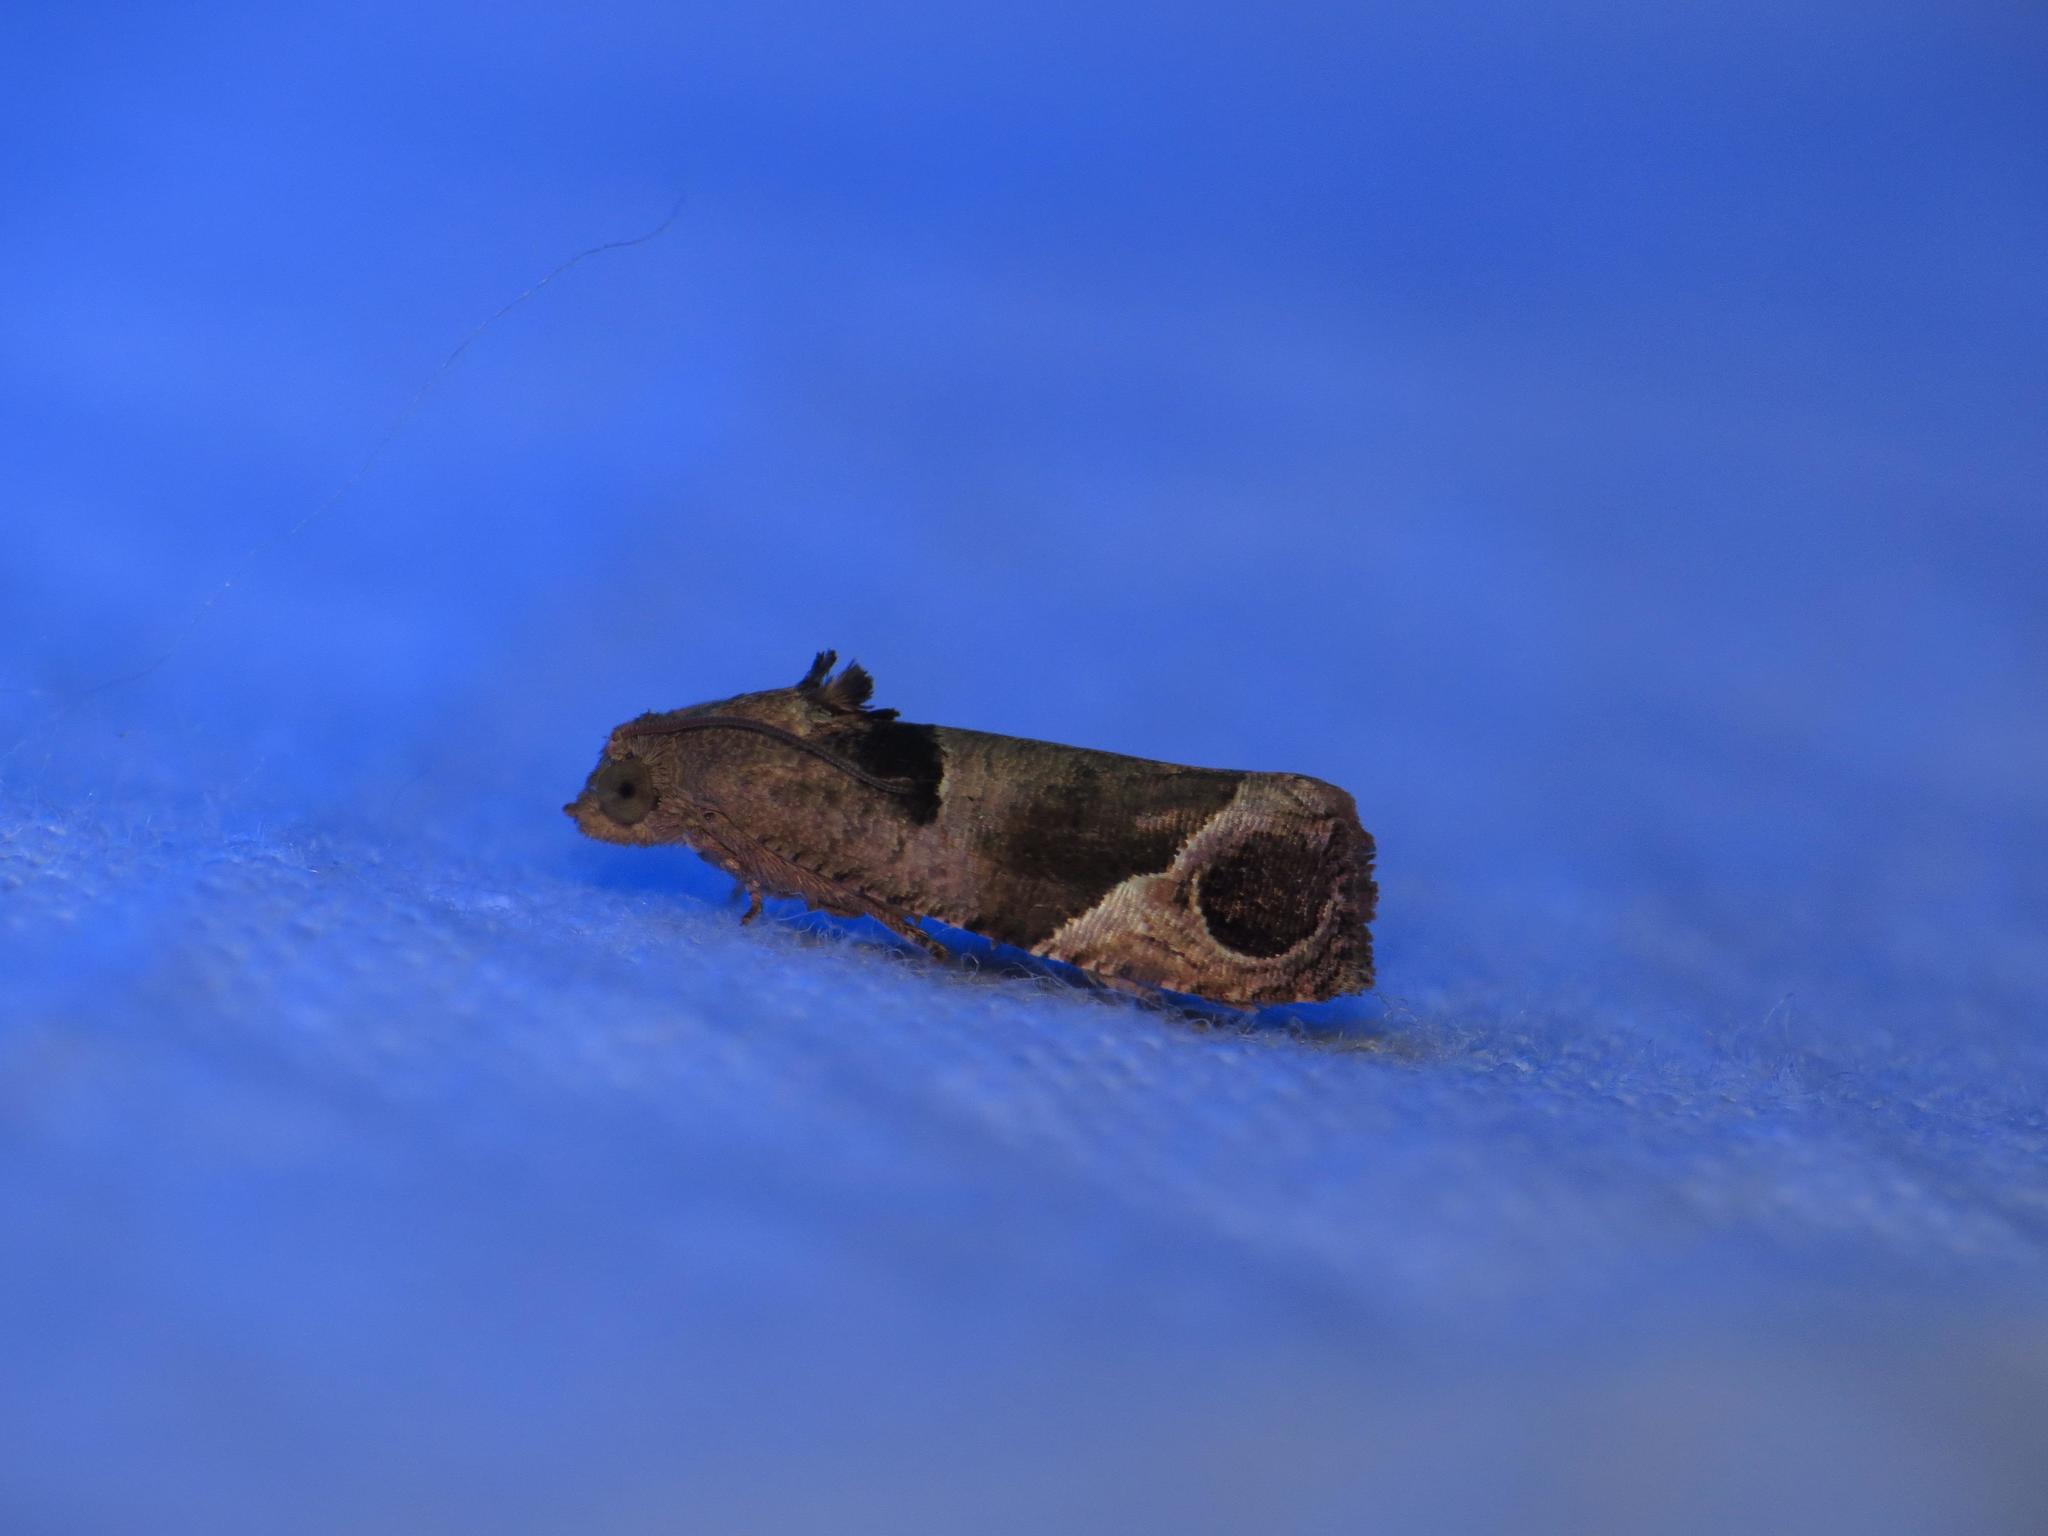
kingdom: Animalia
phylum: Arthropoda
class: Insecta
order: Lepidoptera
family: Tortricidae
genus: Sorolopha
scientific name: Sorolopha cyclotoma
